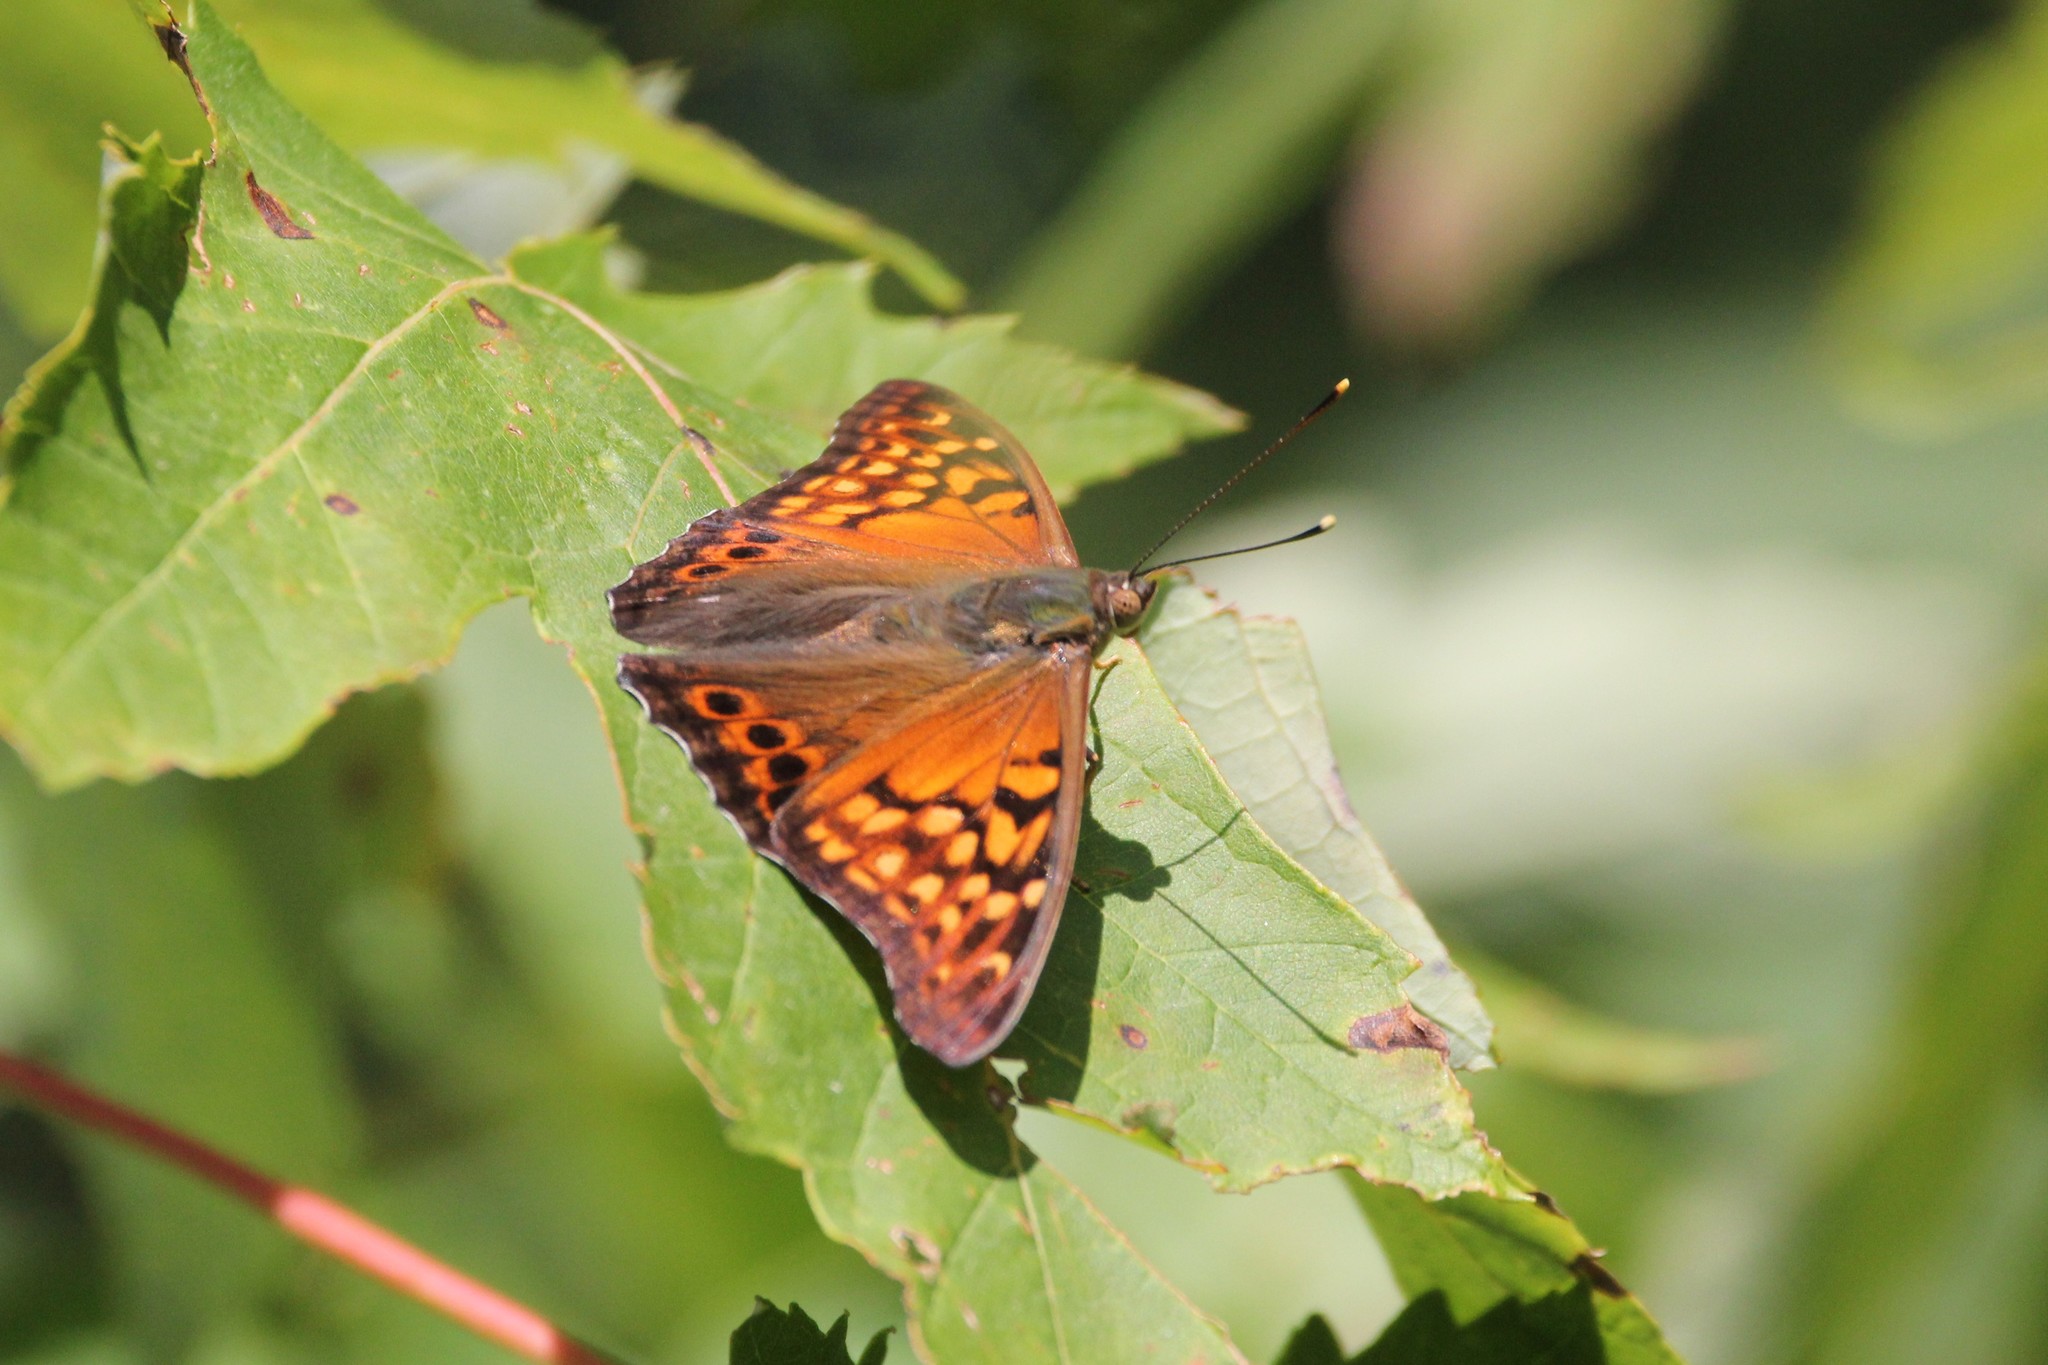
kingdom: Animalia
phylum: Arthropoda
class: Insecta
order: Lepidoptera
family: Nymphalidae
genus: Asterocampa
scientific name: Asterocampa clyton
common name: Tawny emperor
